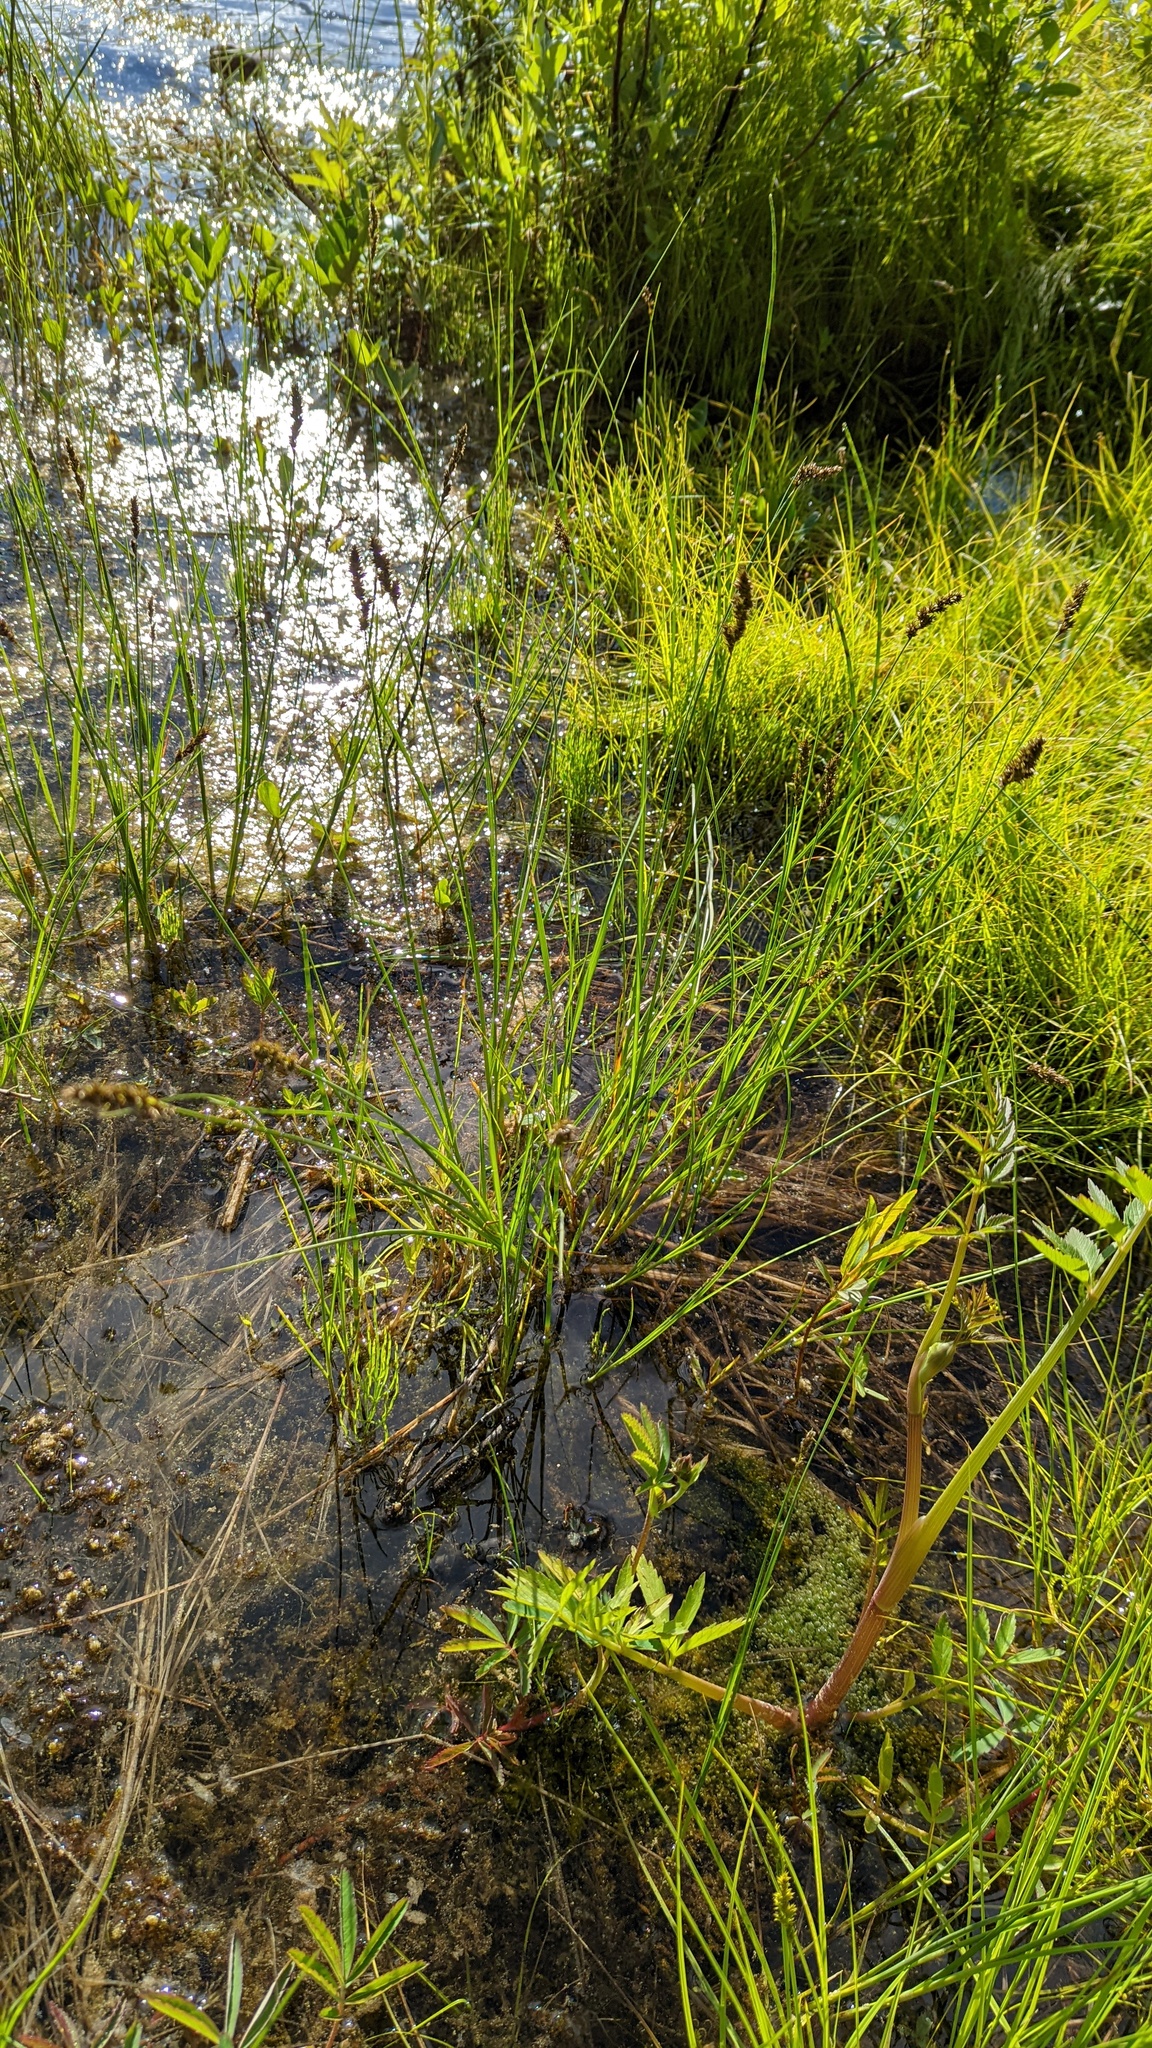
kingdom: Plantae
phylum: Tracheophyta
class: Liliopsida
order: Poales
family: Cyperaceae
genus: Carex
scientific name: Carex diandra
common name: Lesser tussock-sedge
